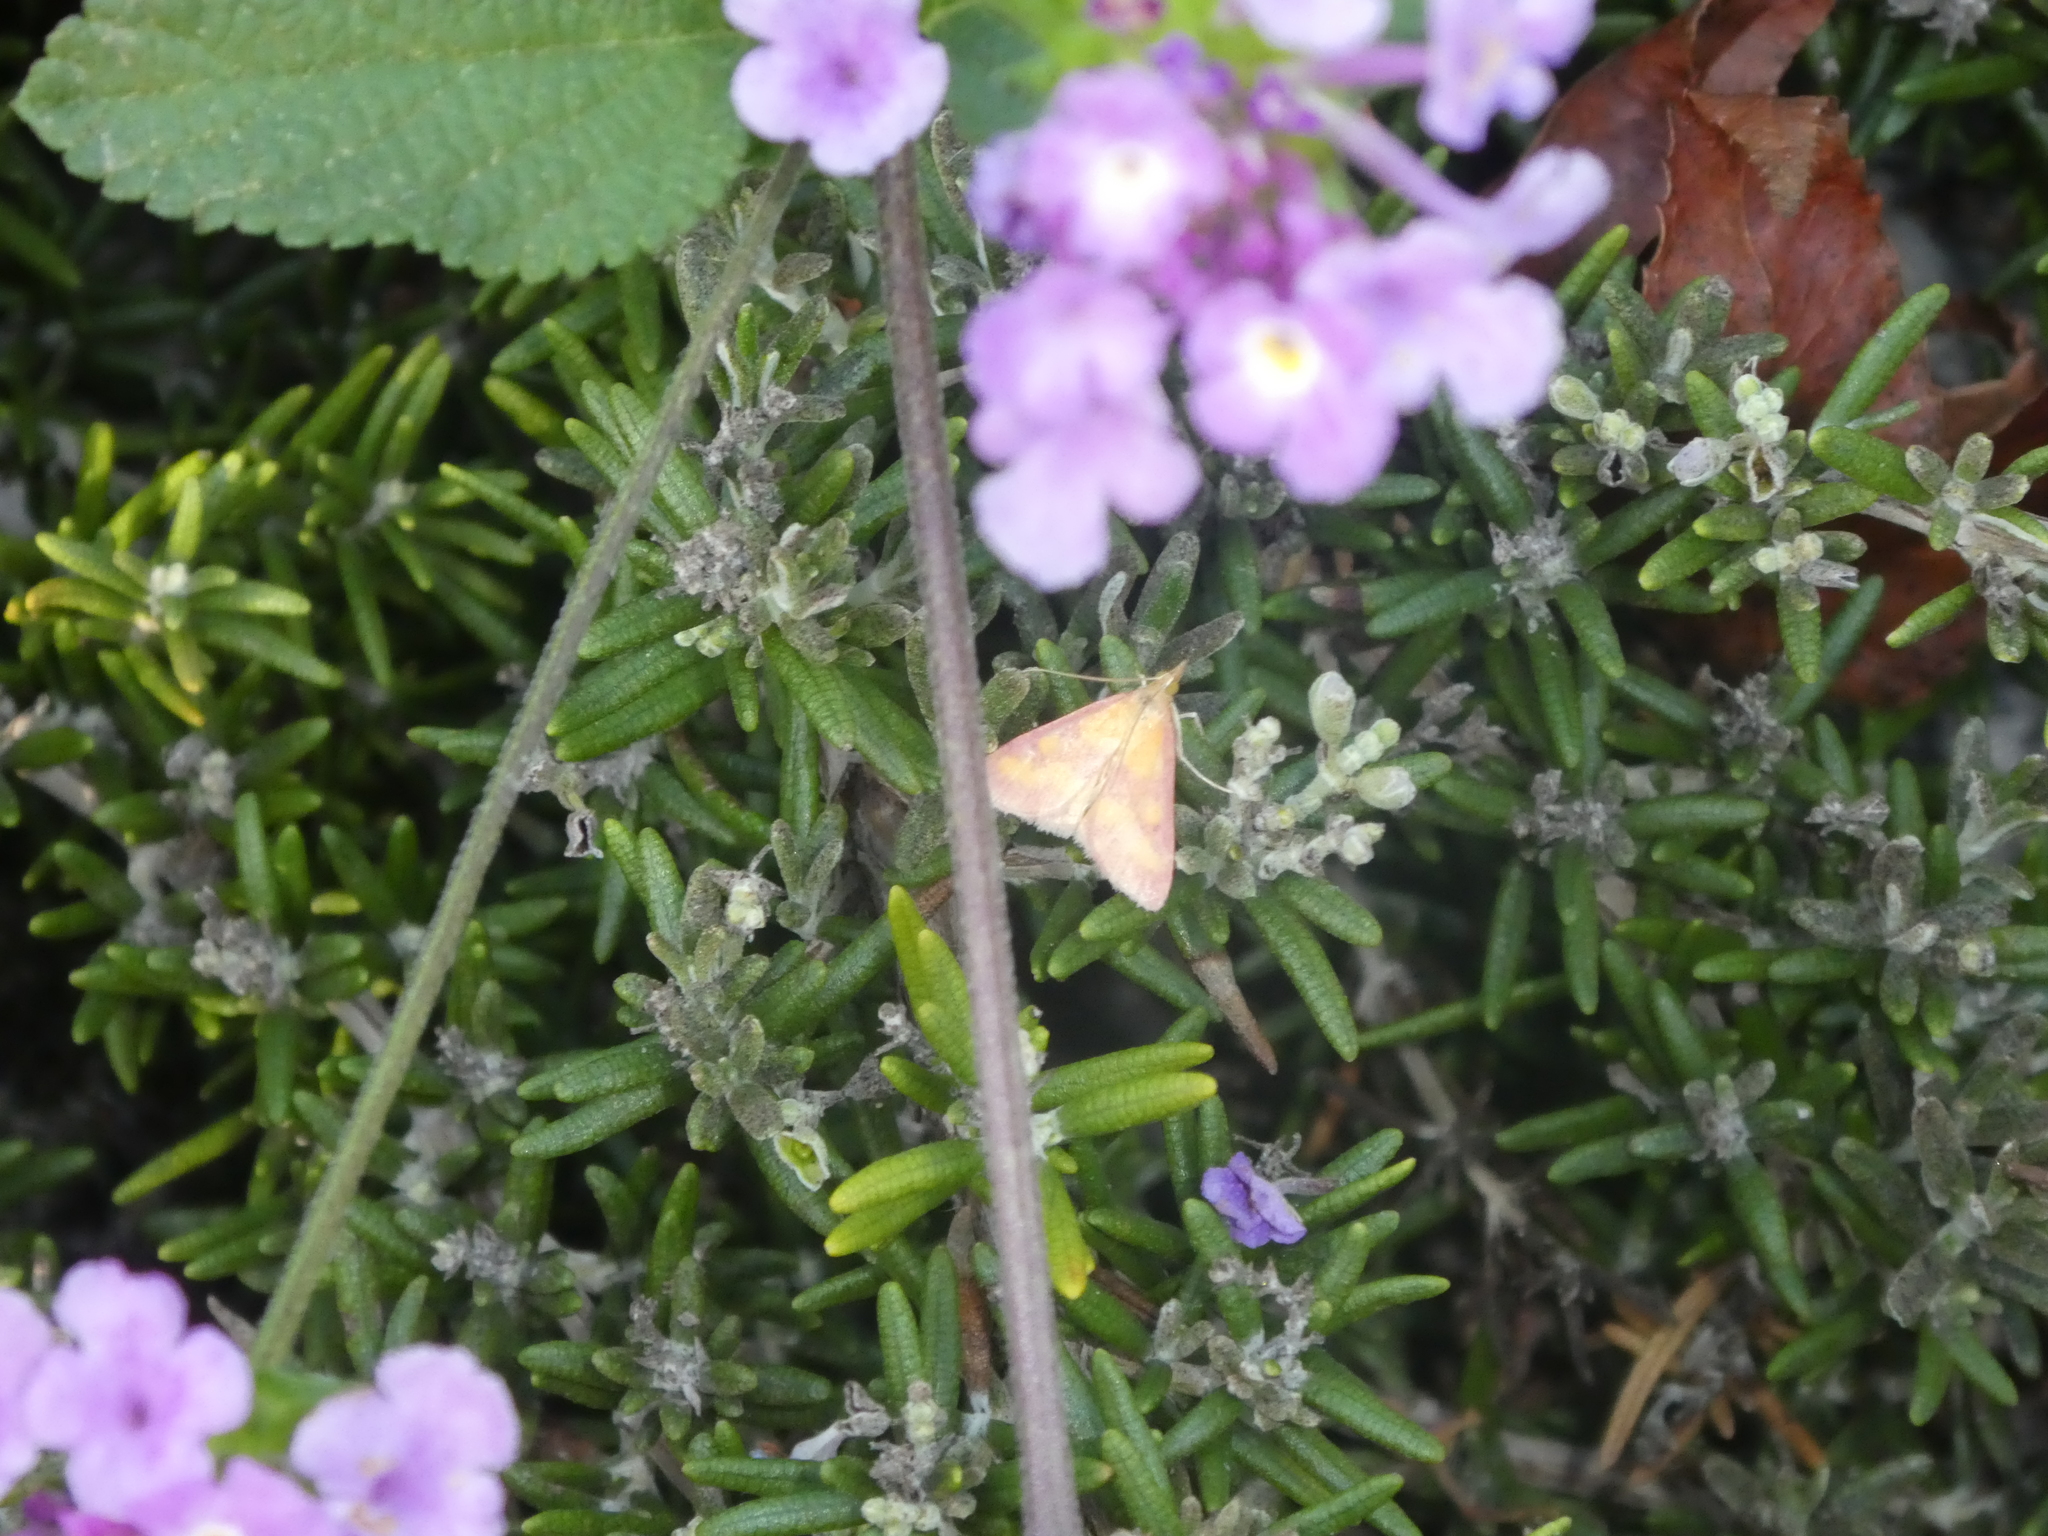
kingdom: Animalia
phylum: Arthropoda
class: Insecta
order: Lepidoptera
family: Crambidae
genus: Pyrausta
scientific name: Pyrausta laticlavia
